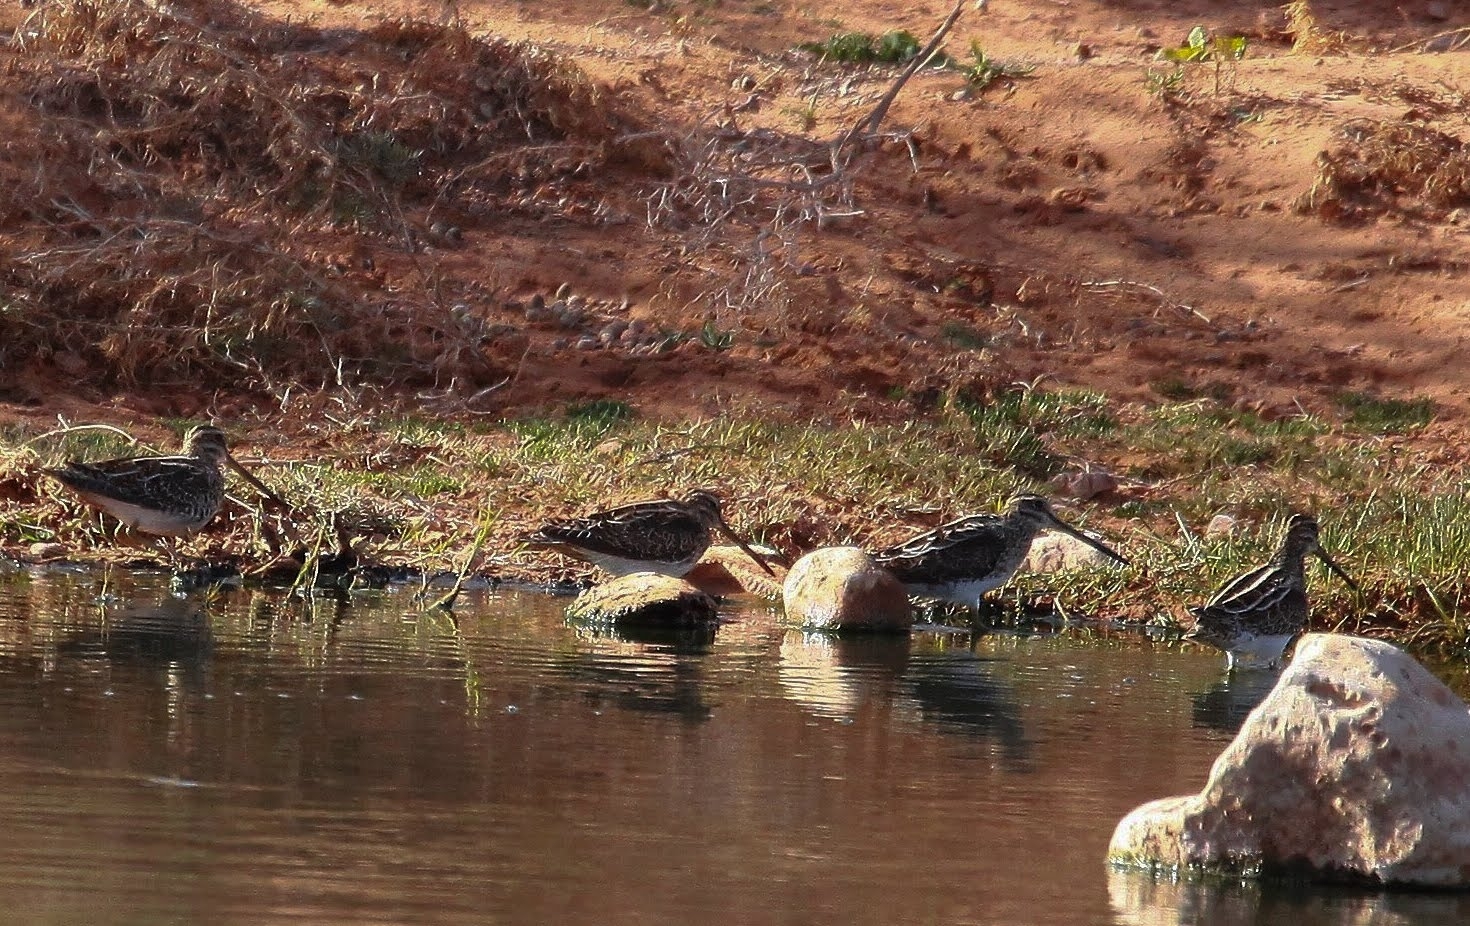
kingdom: Animalia
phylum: Chordata
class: Aves
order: Charadriiformes
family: Scolopacidae
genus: Gallinago
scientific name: Gallinago gallinago
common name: Common snipe
